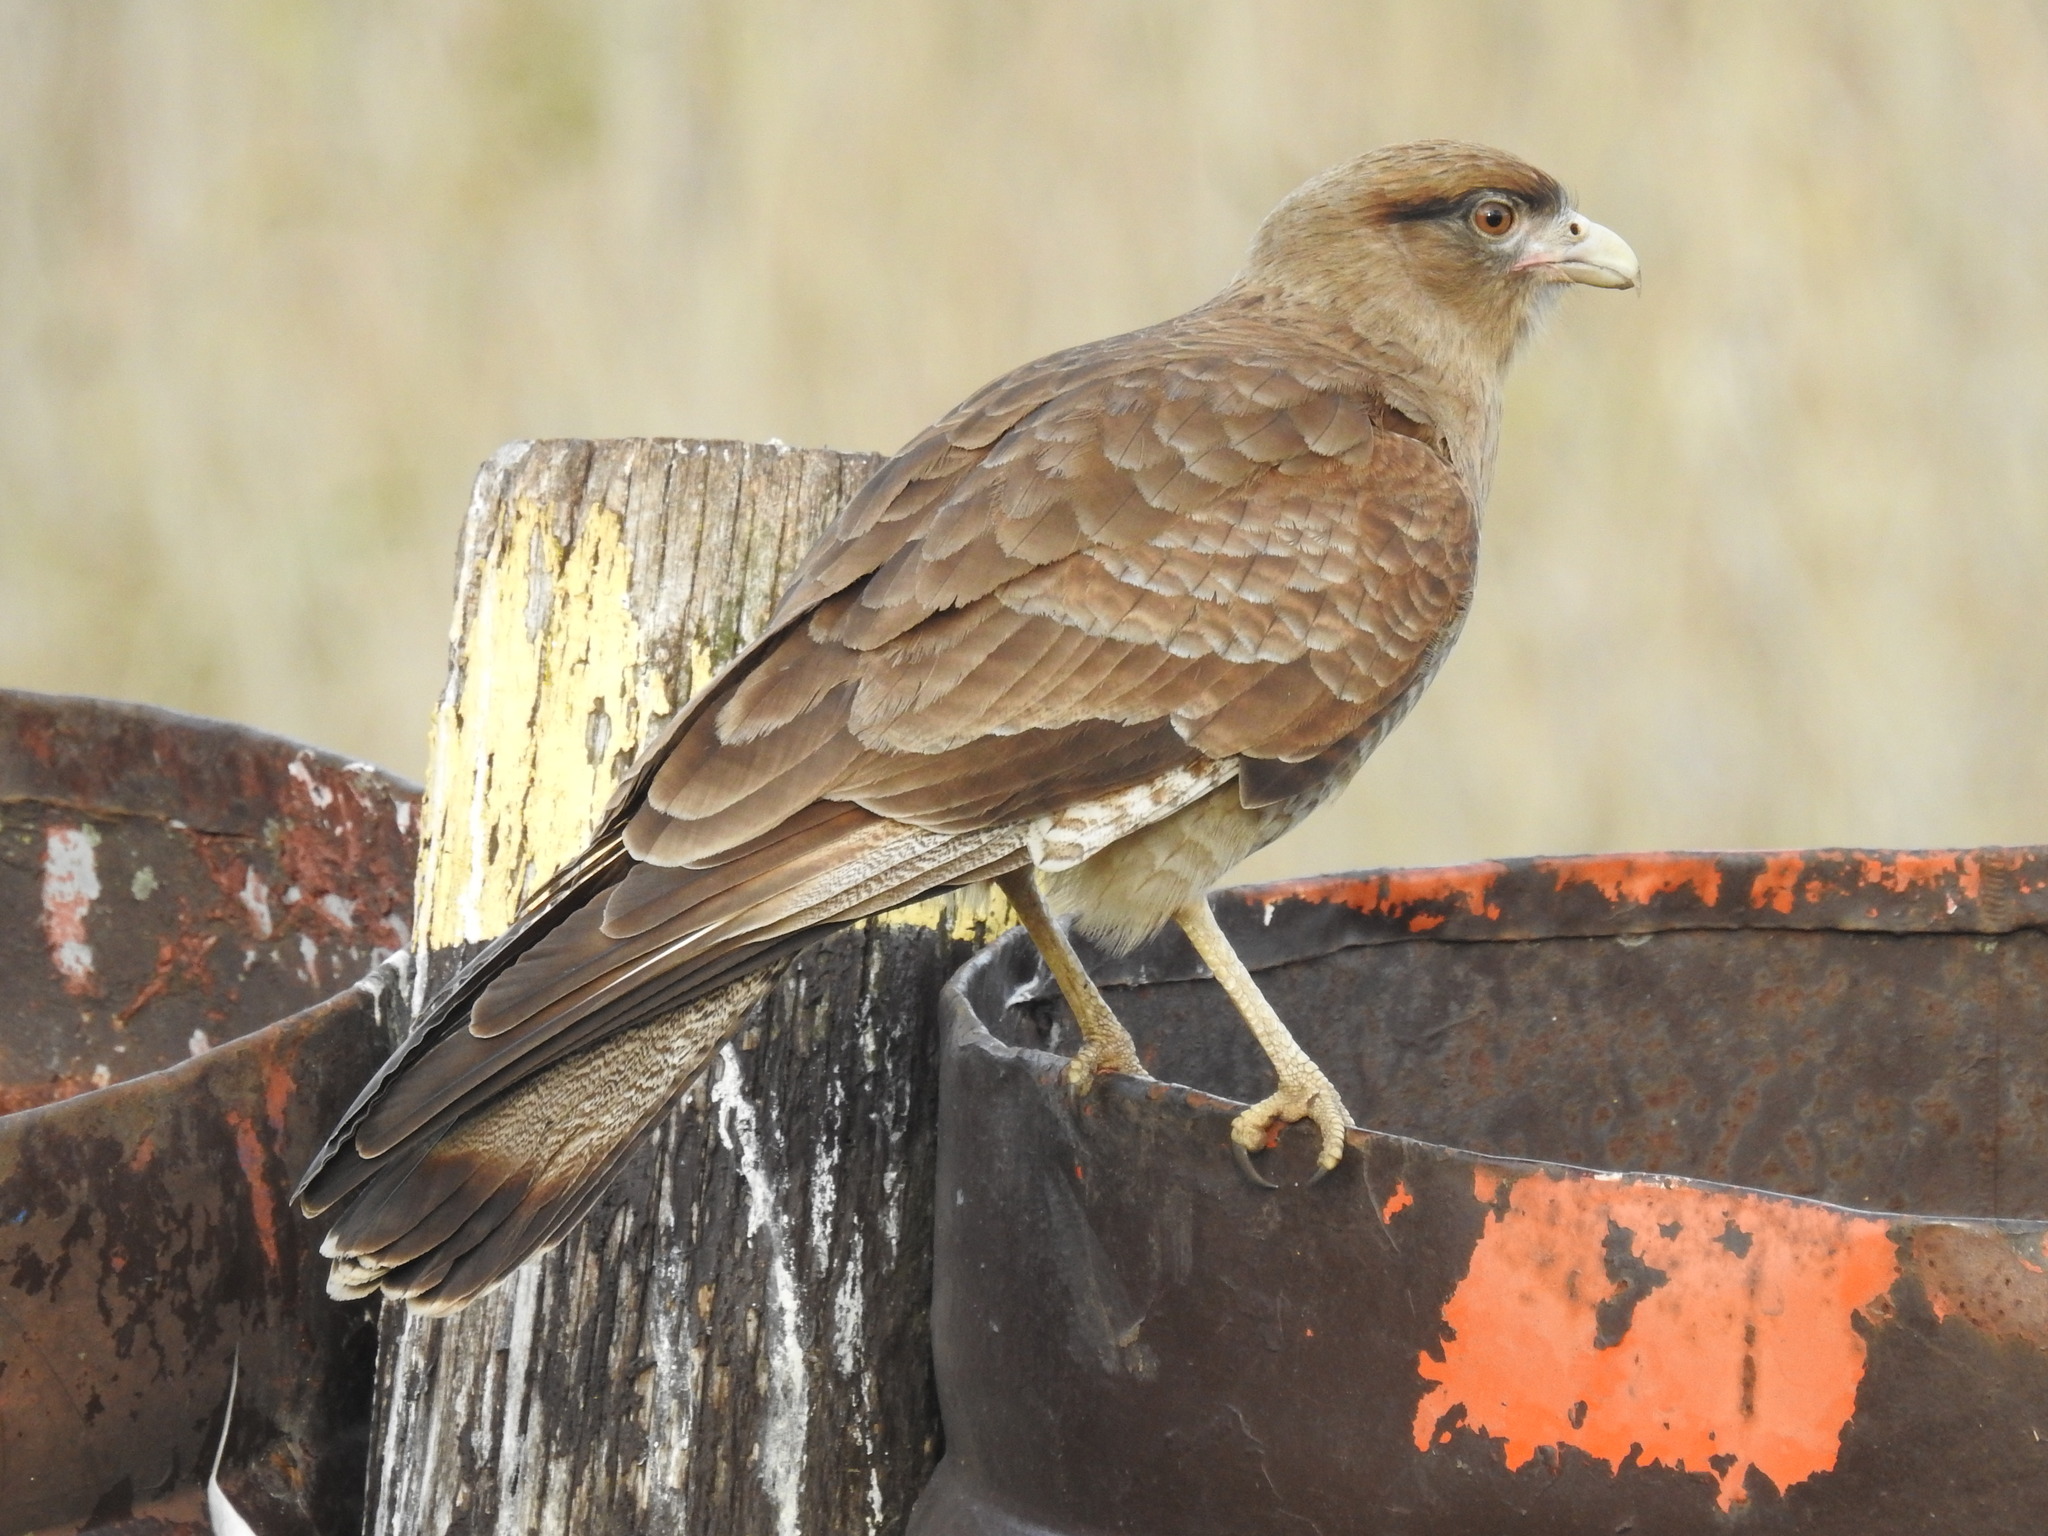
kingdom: Animalia
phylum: Chordata
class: Aves
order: Falconiformes
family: Falconidae
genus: Daptrius
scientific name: Daptrius
